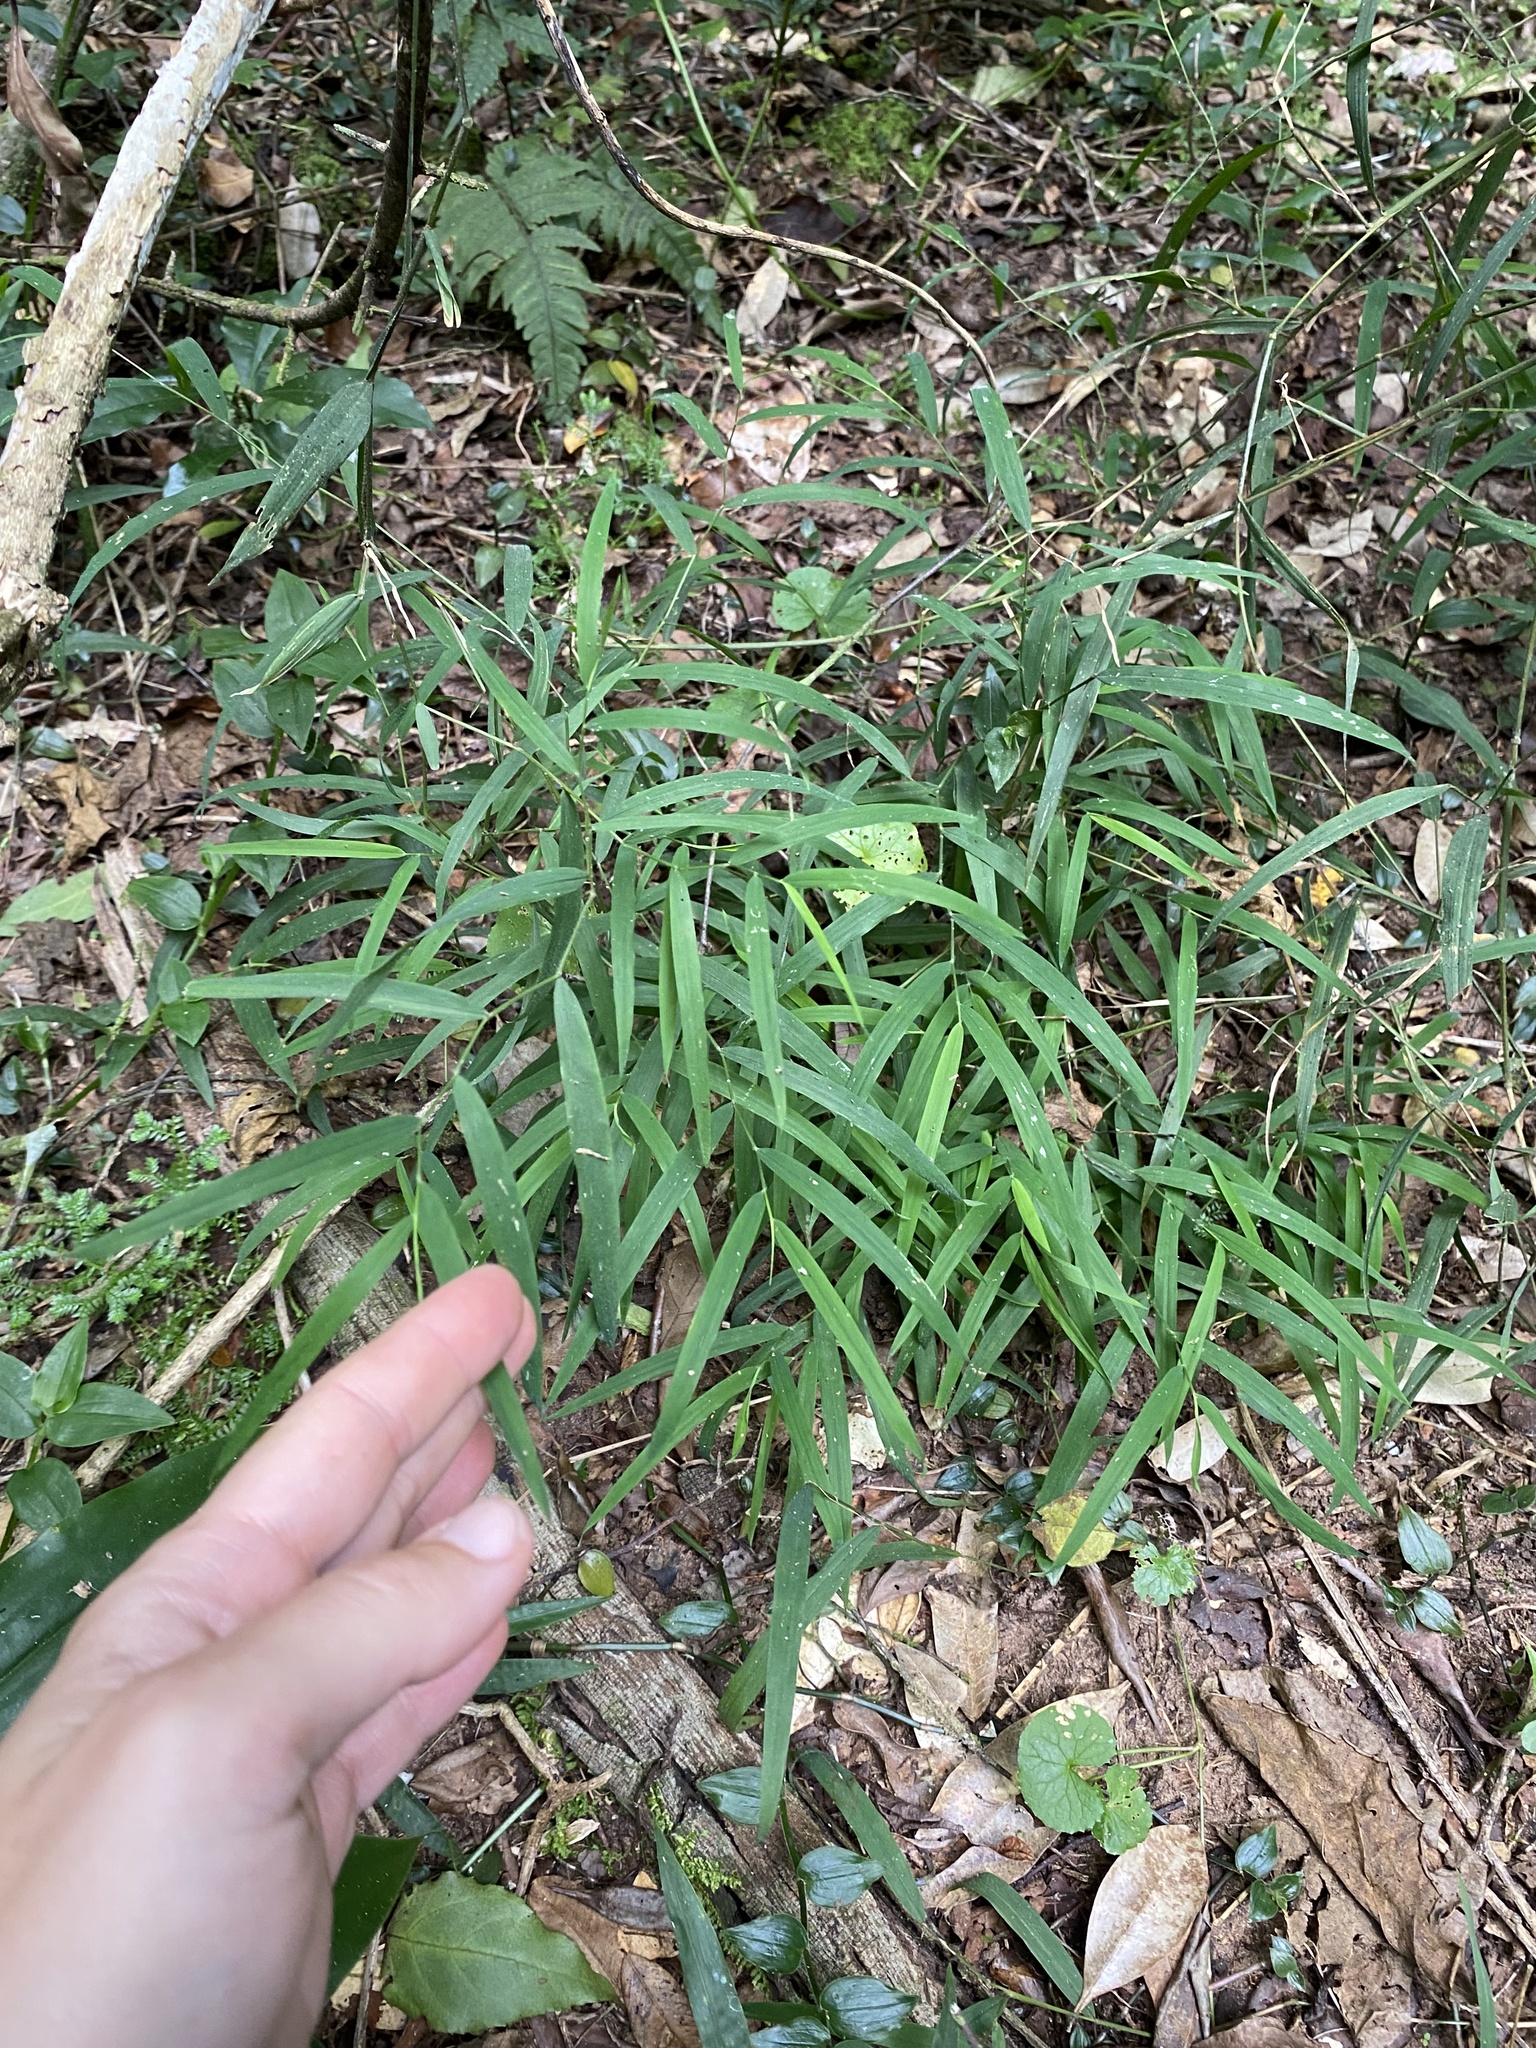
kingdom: Plantae
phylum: Tracheophyta
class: Liliopsida
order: Asparagales
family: Asparagaceae
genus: Asparagus
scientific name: Asparagus falcatus
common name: Asparagus
